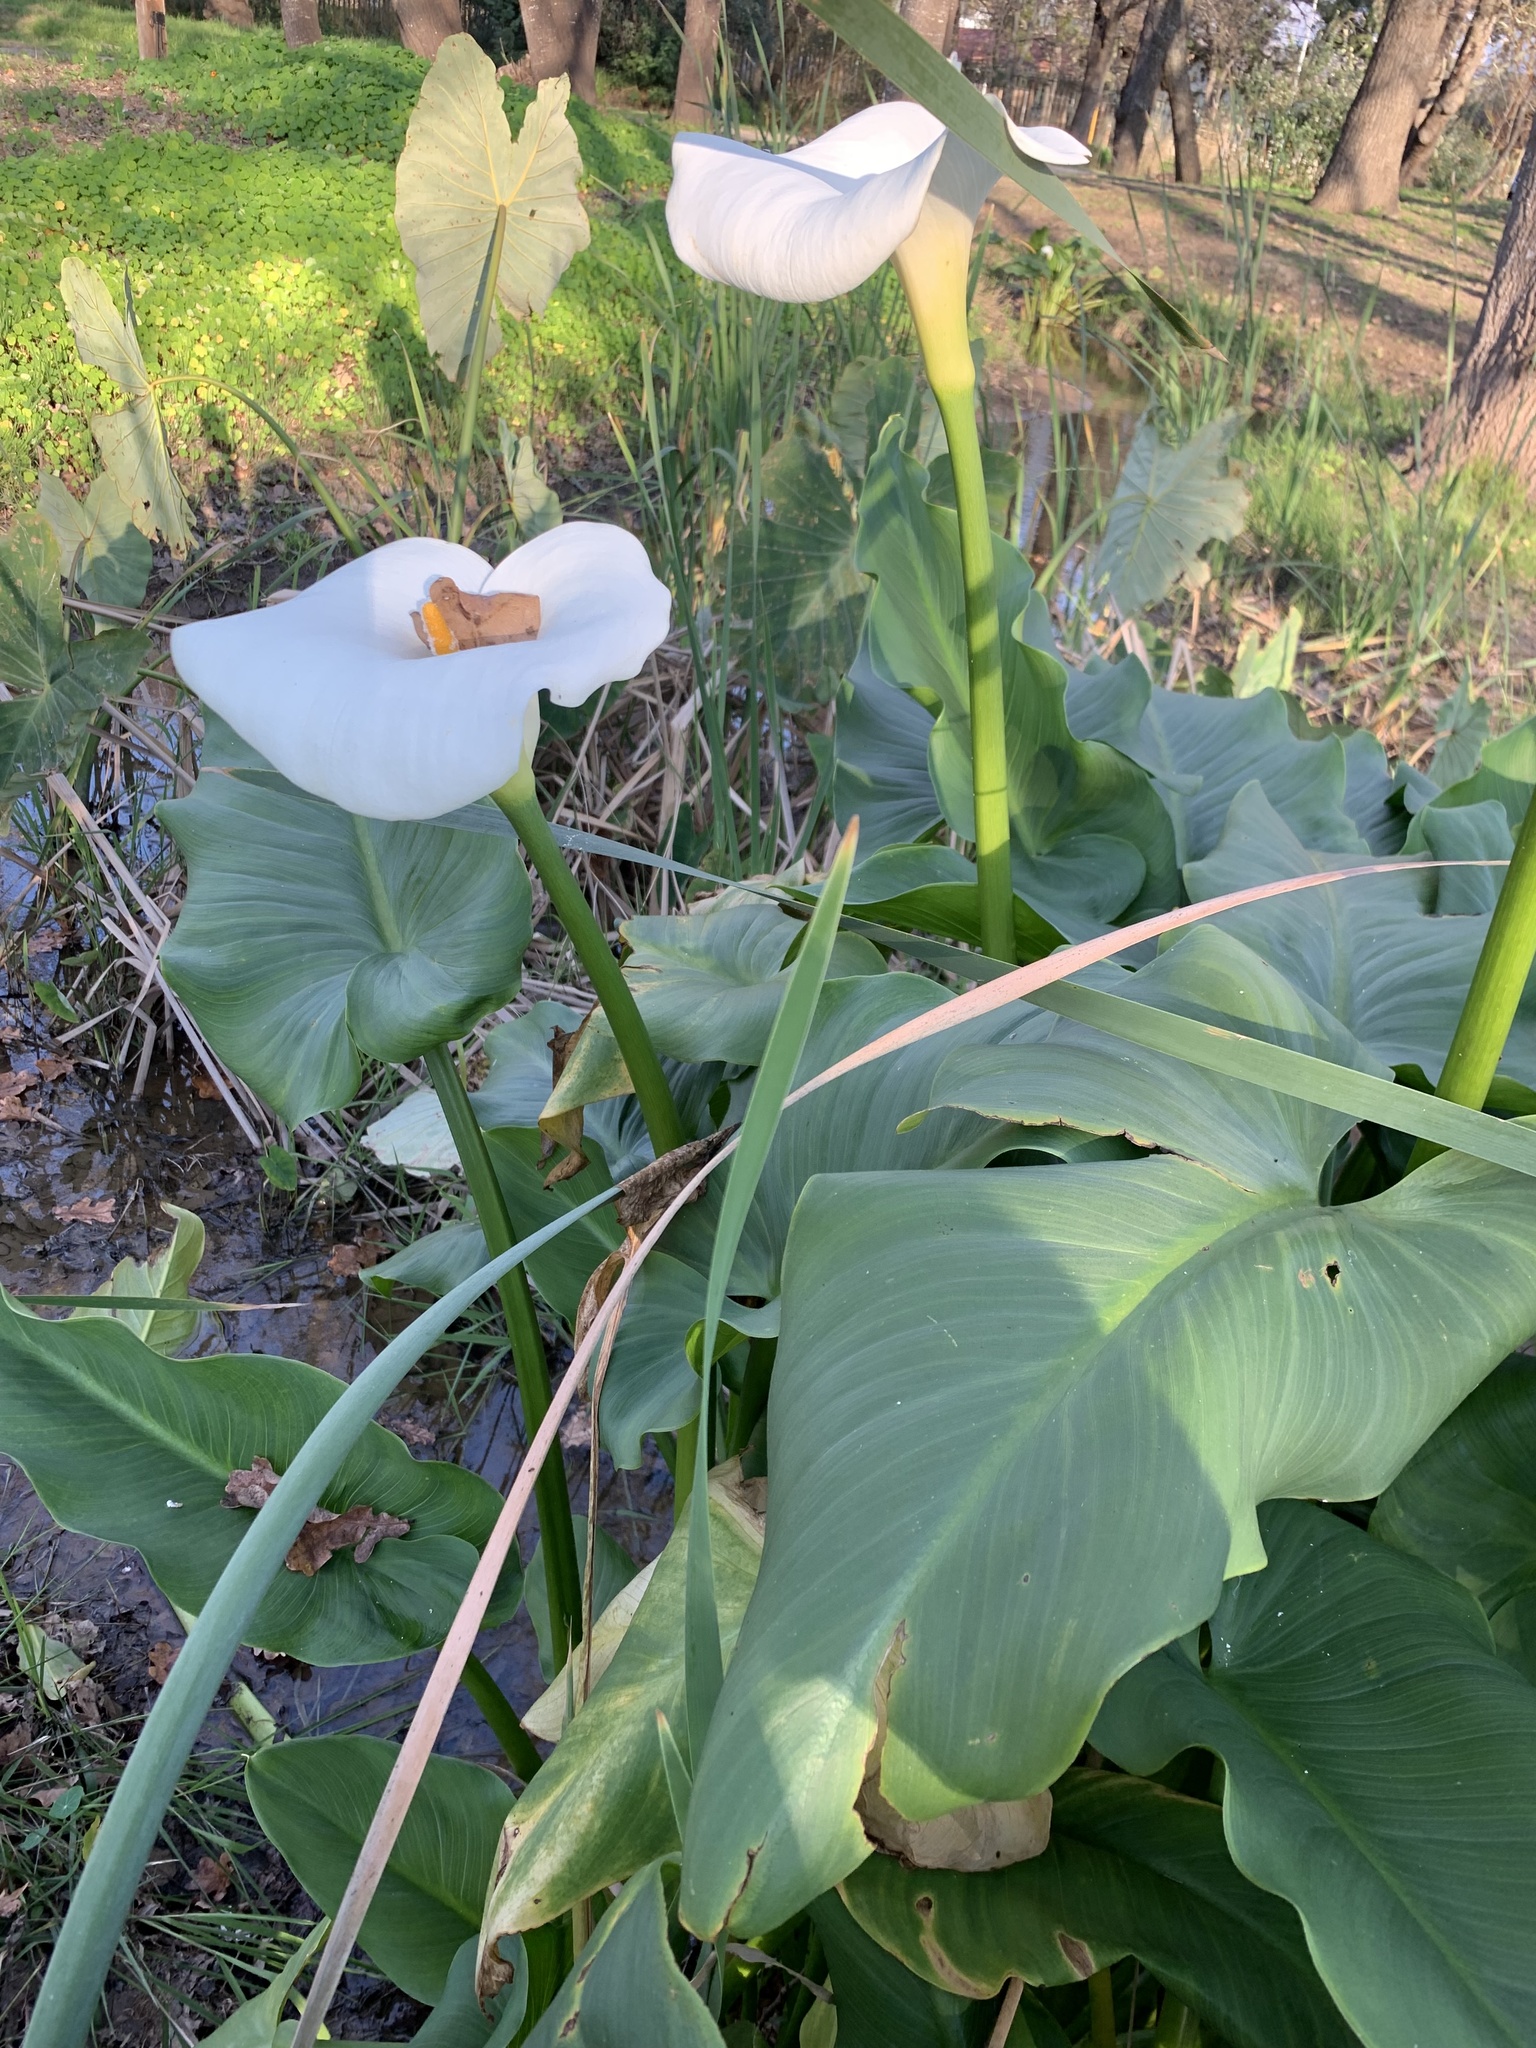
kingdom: Plantae
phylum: Tracheophyta
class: Liliopsida
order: Alismatales
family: Araceae
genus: Zantedeschia
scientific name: Zantedeschia aethiopica
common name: Altar-lily
